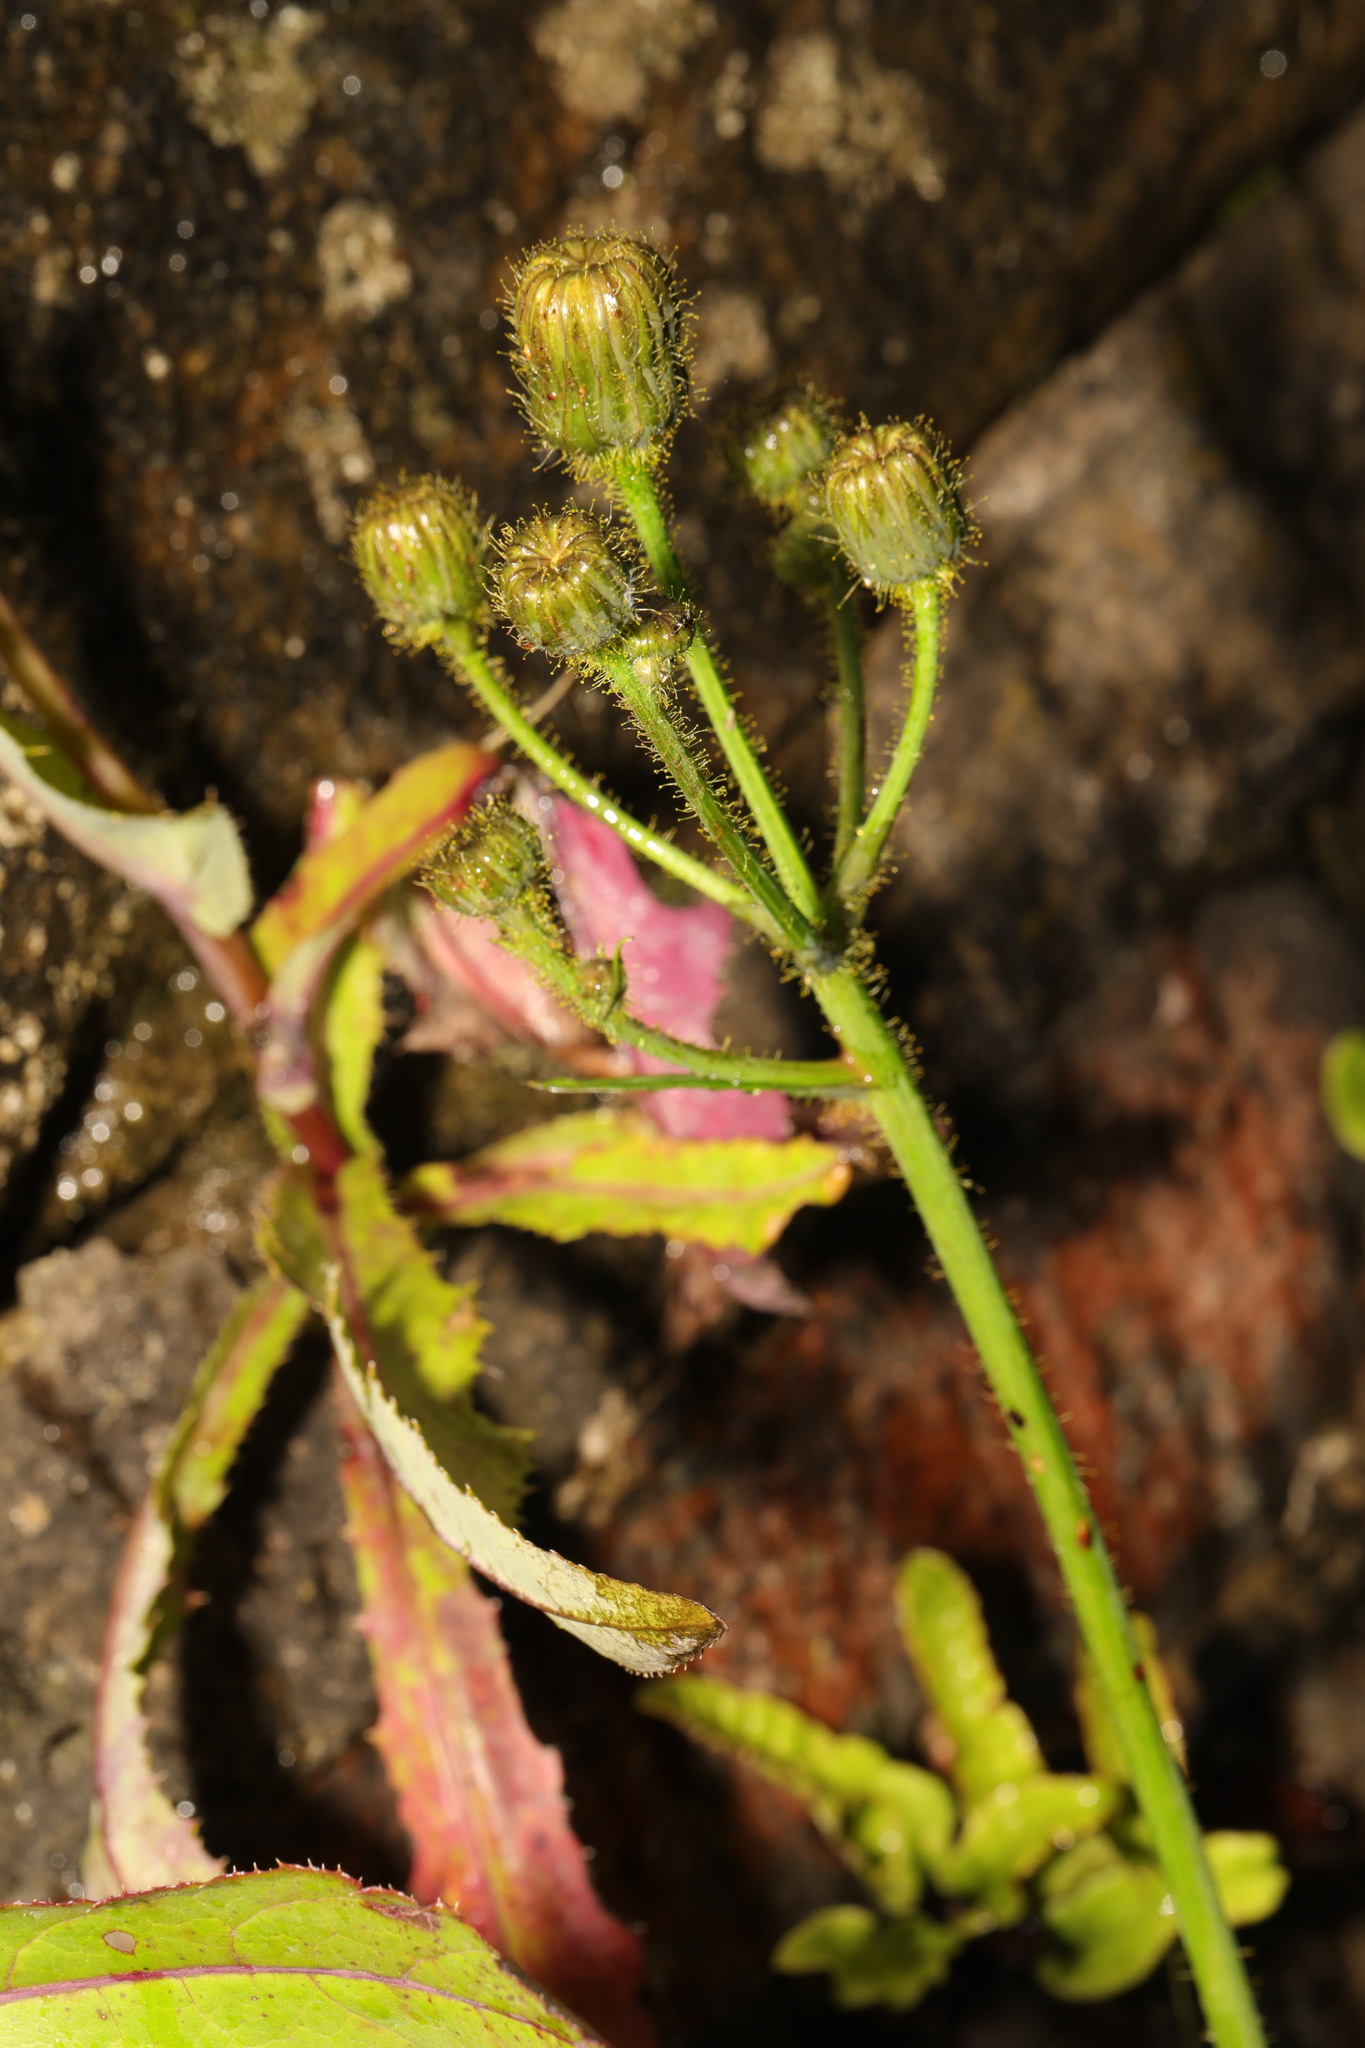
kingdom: Plantae
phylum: Tracheophyta
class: Magnoliopsida
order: Asterales
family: Asteraceae
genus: Sonchus
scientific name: Sonchus arvensis
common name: Perennial sow-thistle
